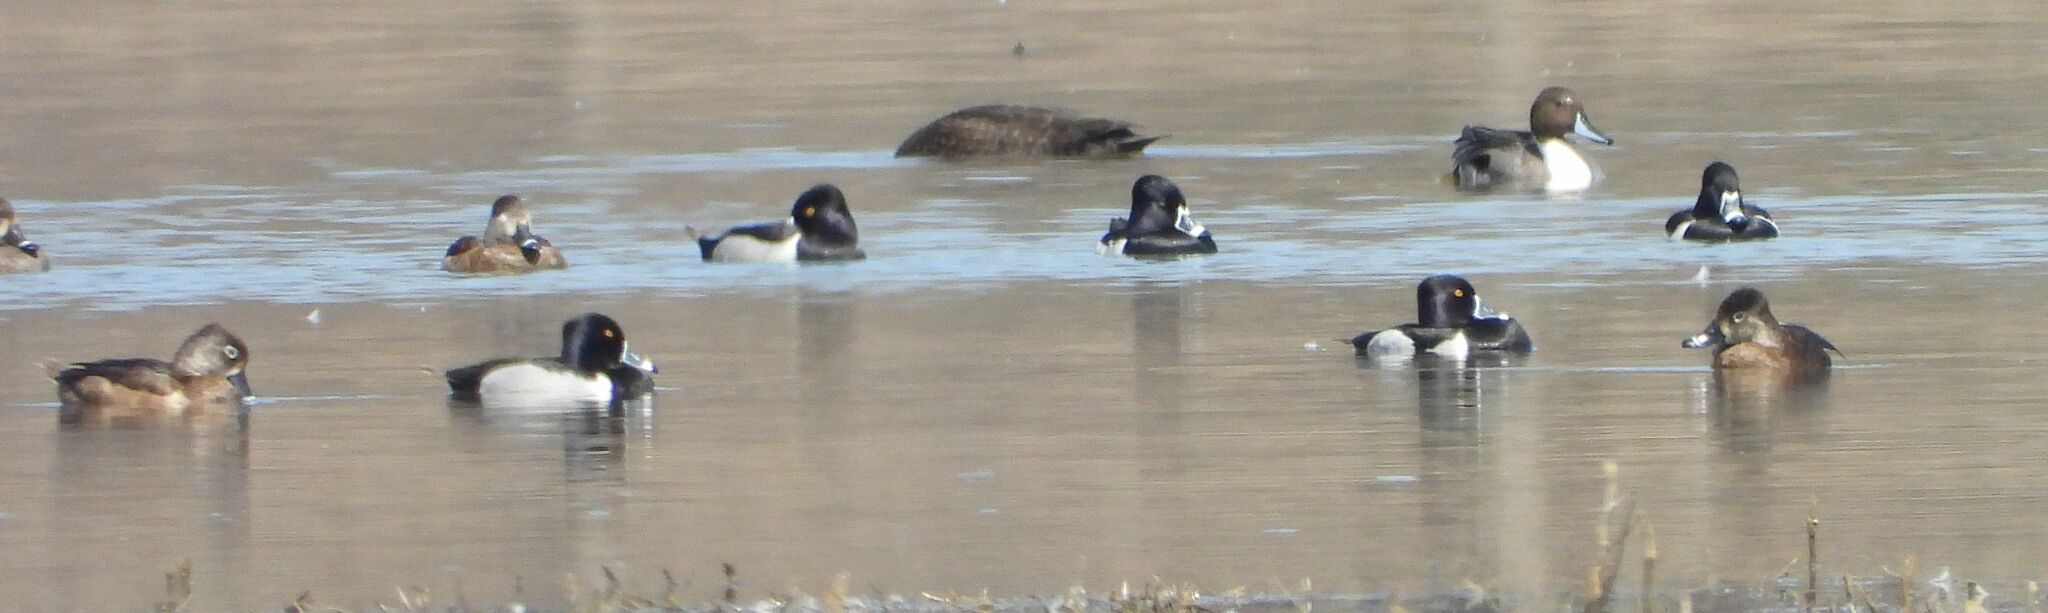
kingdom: Animalia
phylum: Chordata
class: Aves
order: Anseriformes
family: Anatidae
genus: Aythya
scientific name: Aythya collaris
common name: Ring-necked duck
